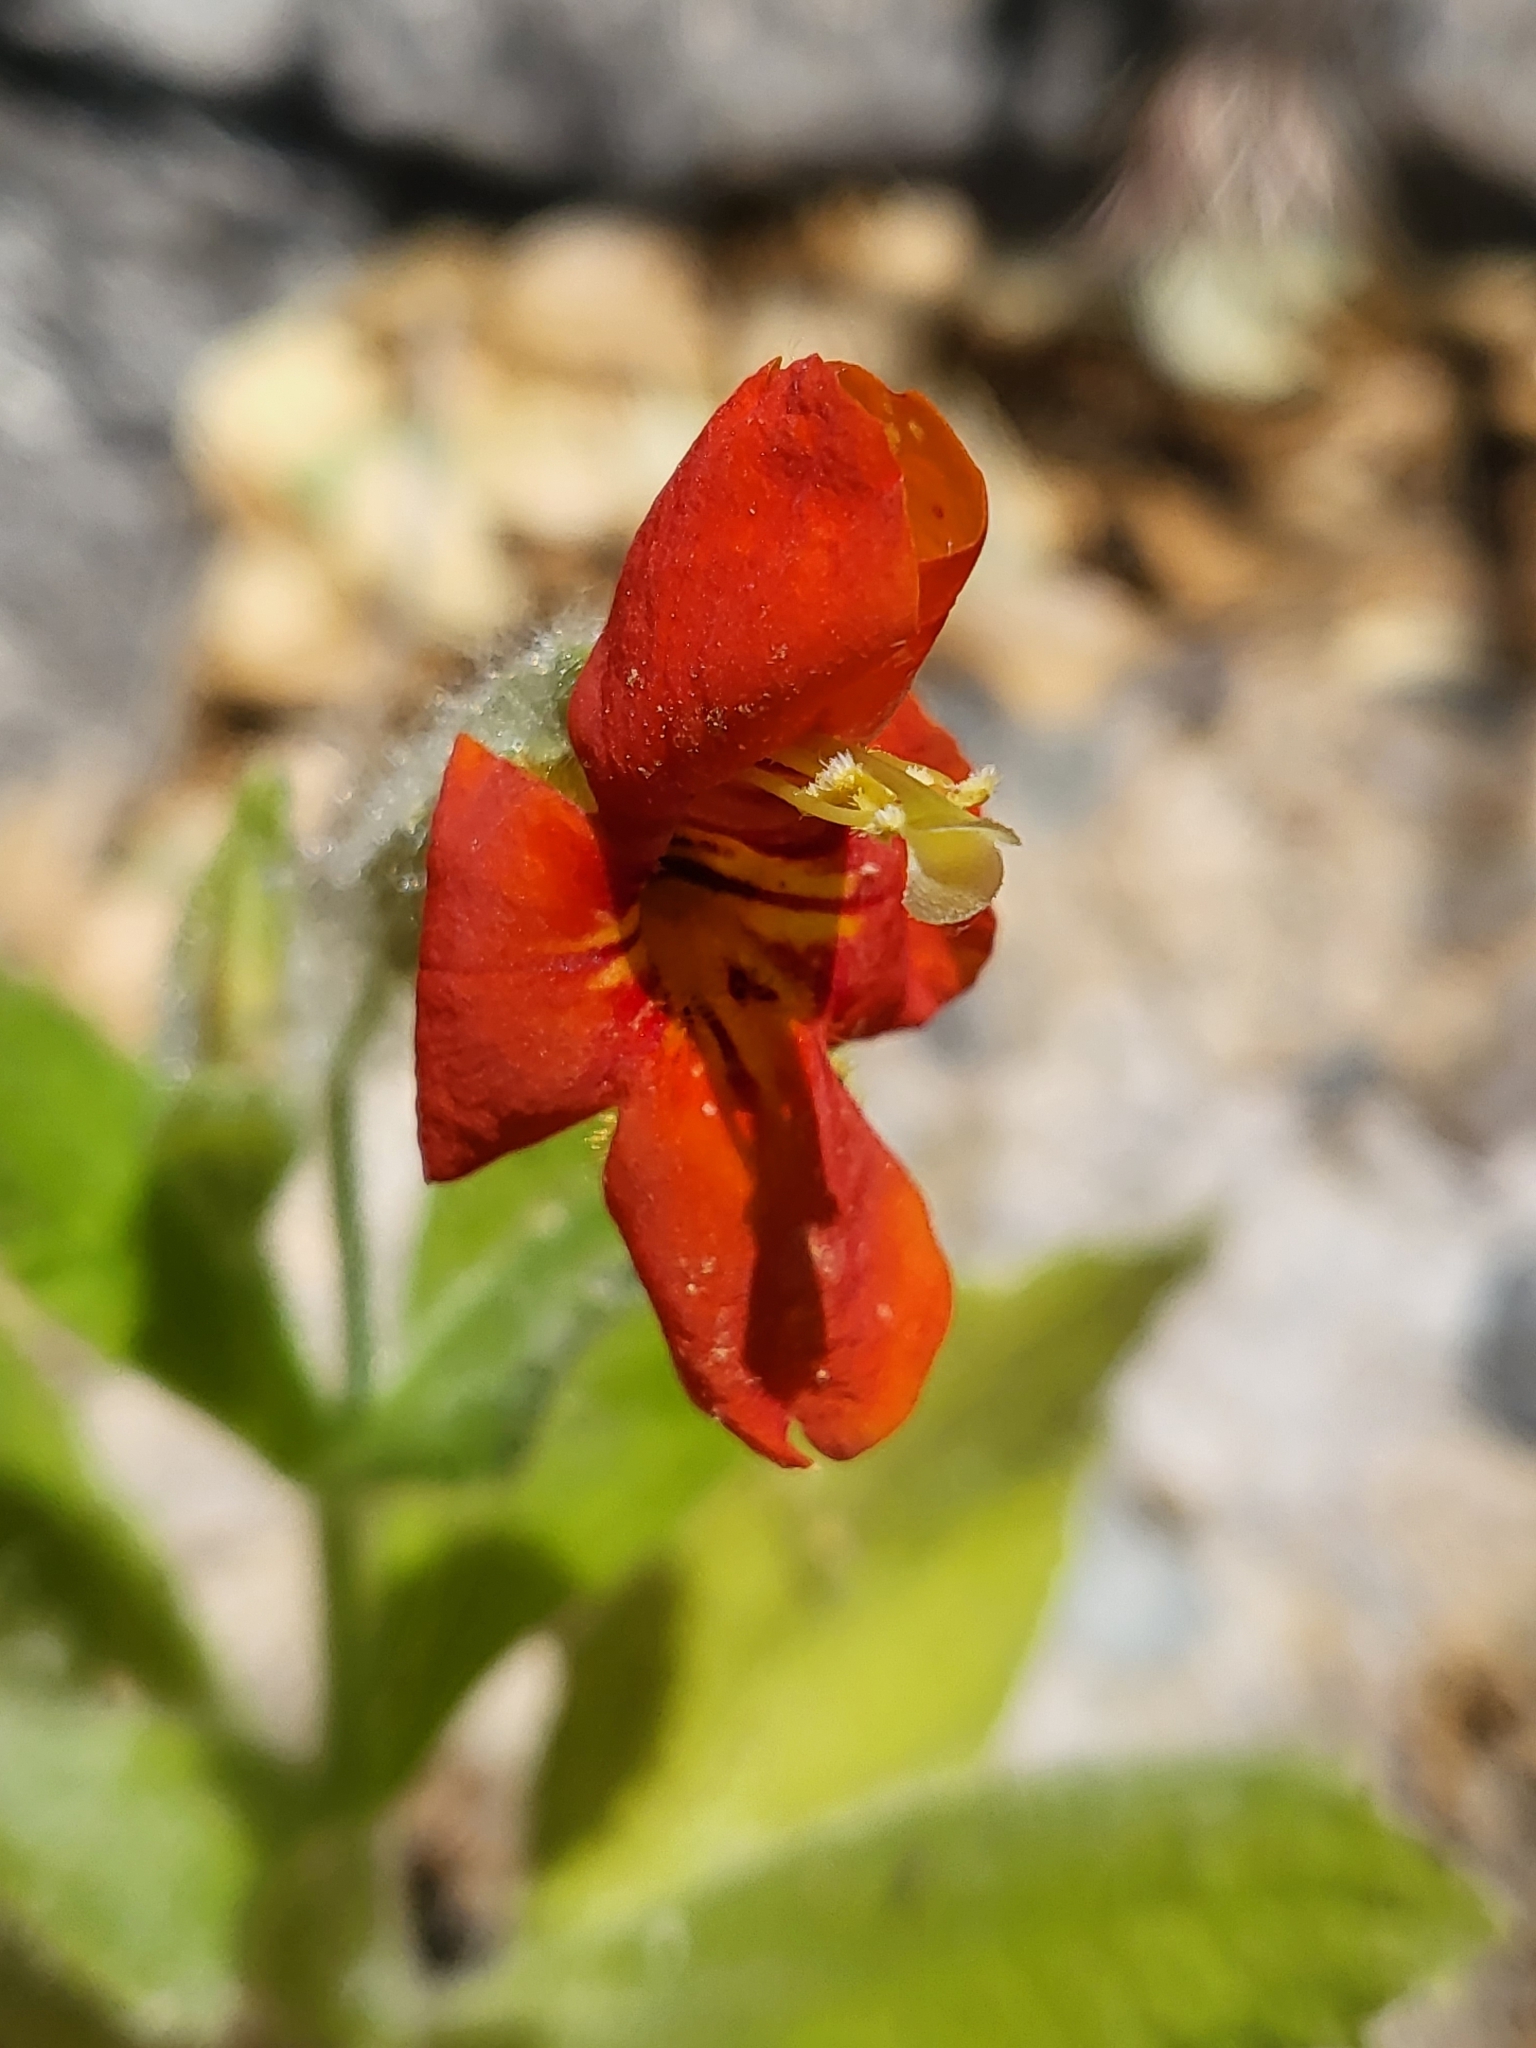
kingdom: Plantae
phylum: Tracheophyta
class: Magnoliopsida
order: Lamiales
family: Phrymaceae
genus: Erythranthe
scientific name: Erythranthe cardinalis
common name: Scarlet monkey-flower
